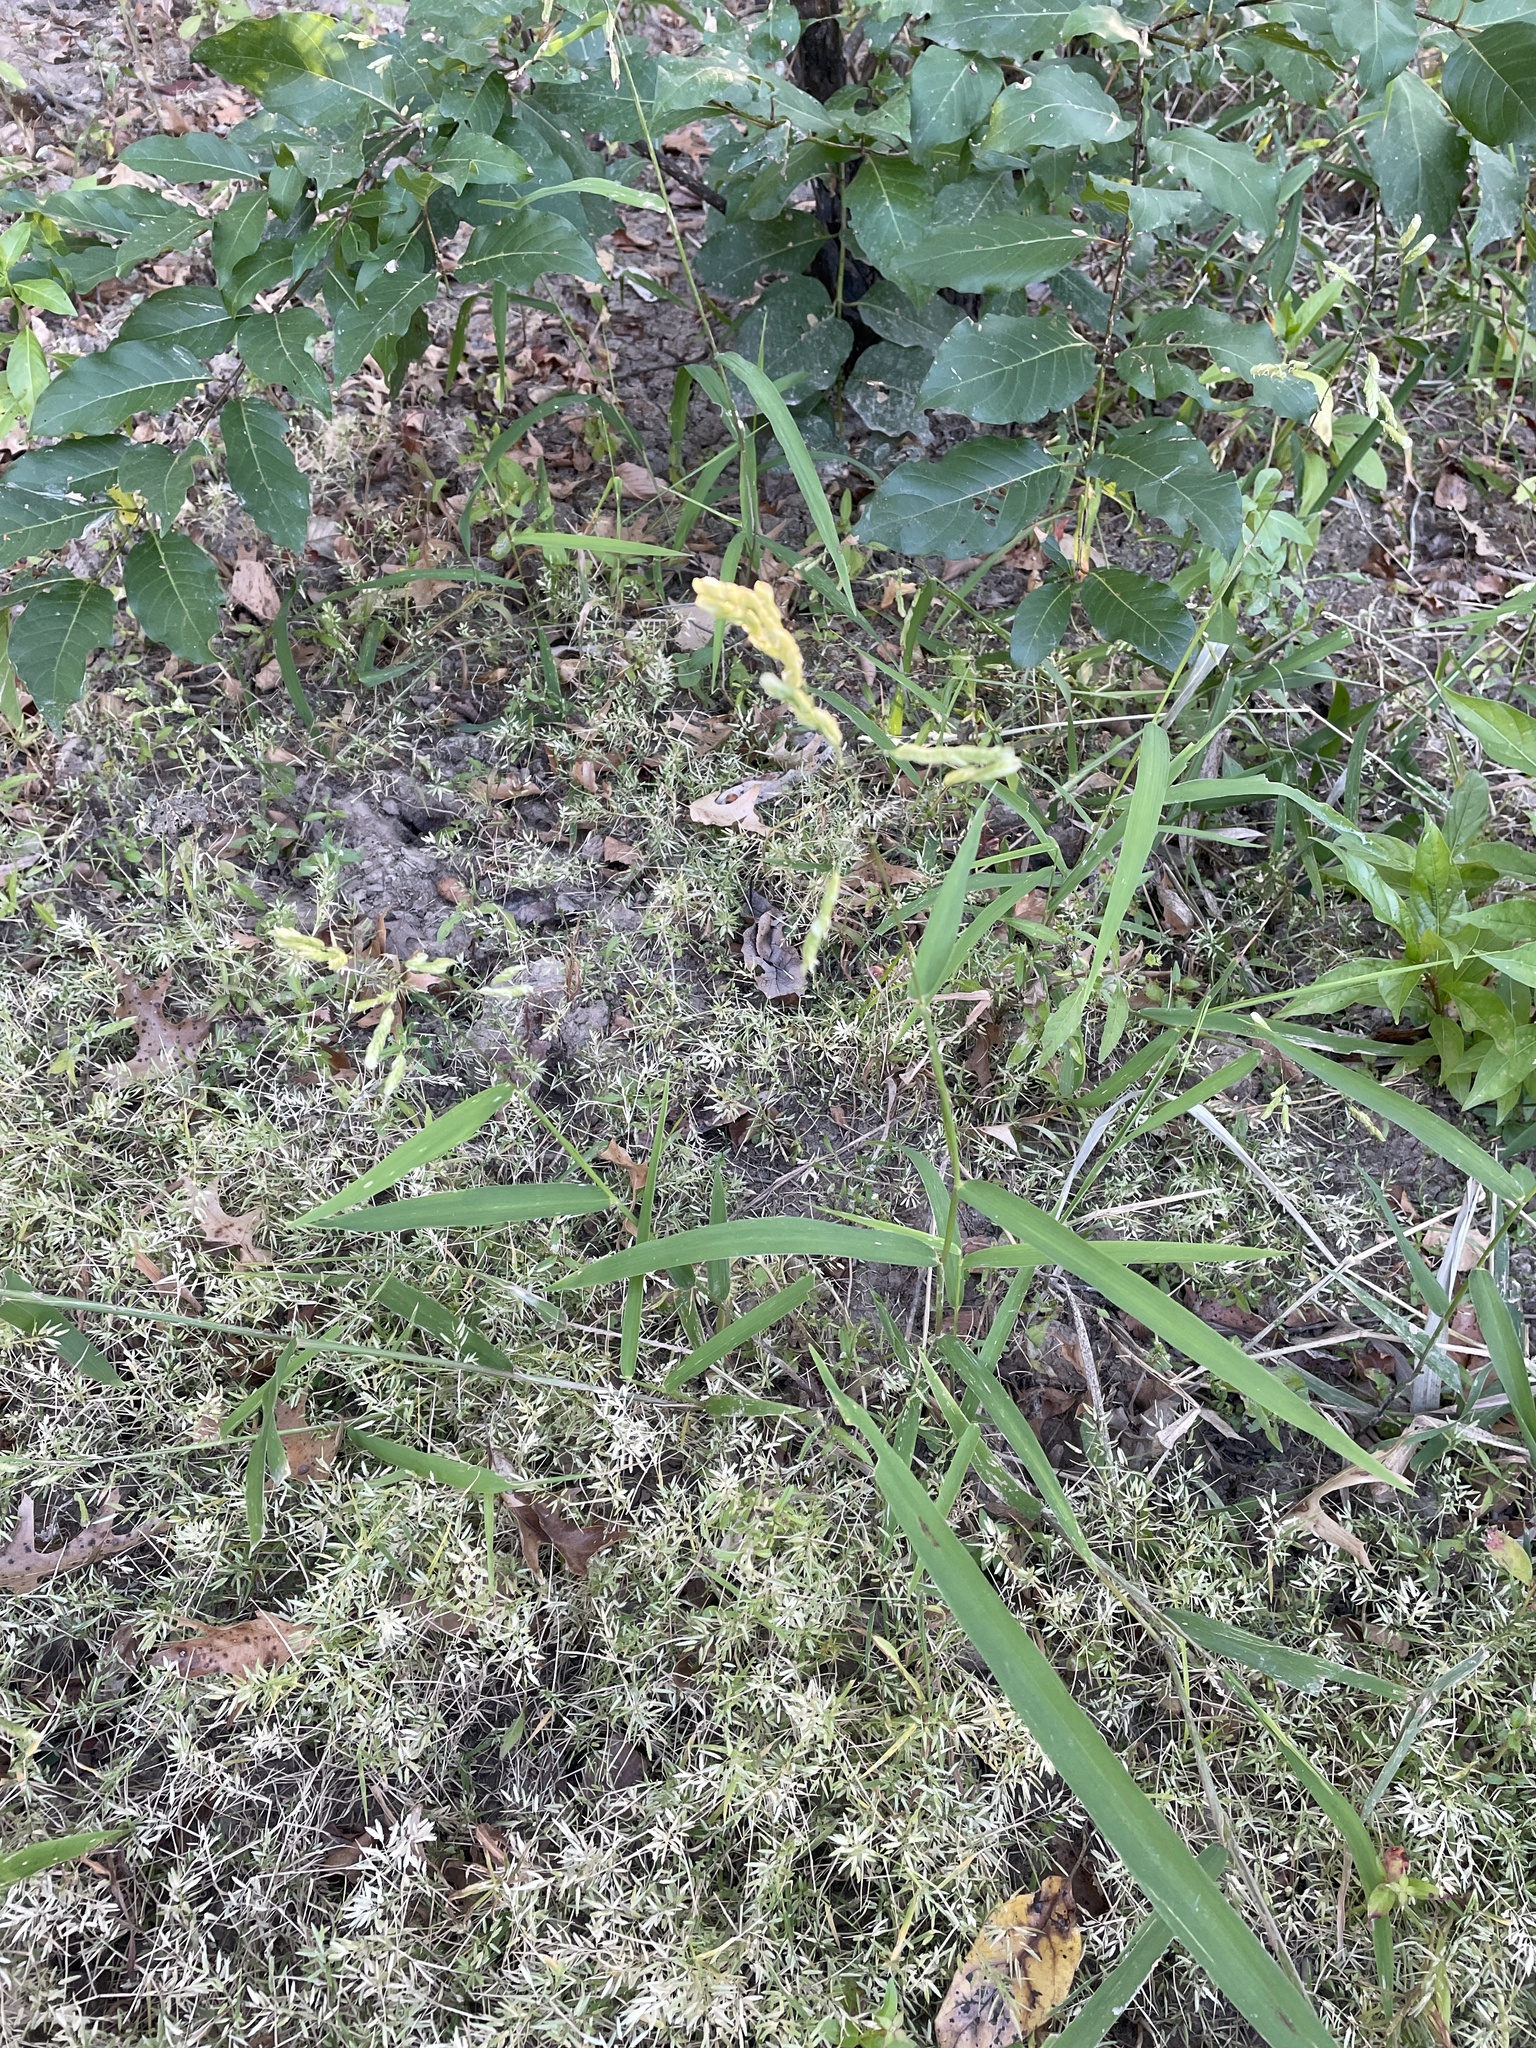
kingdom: Plantae
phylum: Tracheophyta
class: Liliopsida
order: Poales
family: Poaceae
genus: Leersia
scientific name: Leersia oryzoides
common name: Cut-grass
